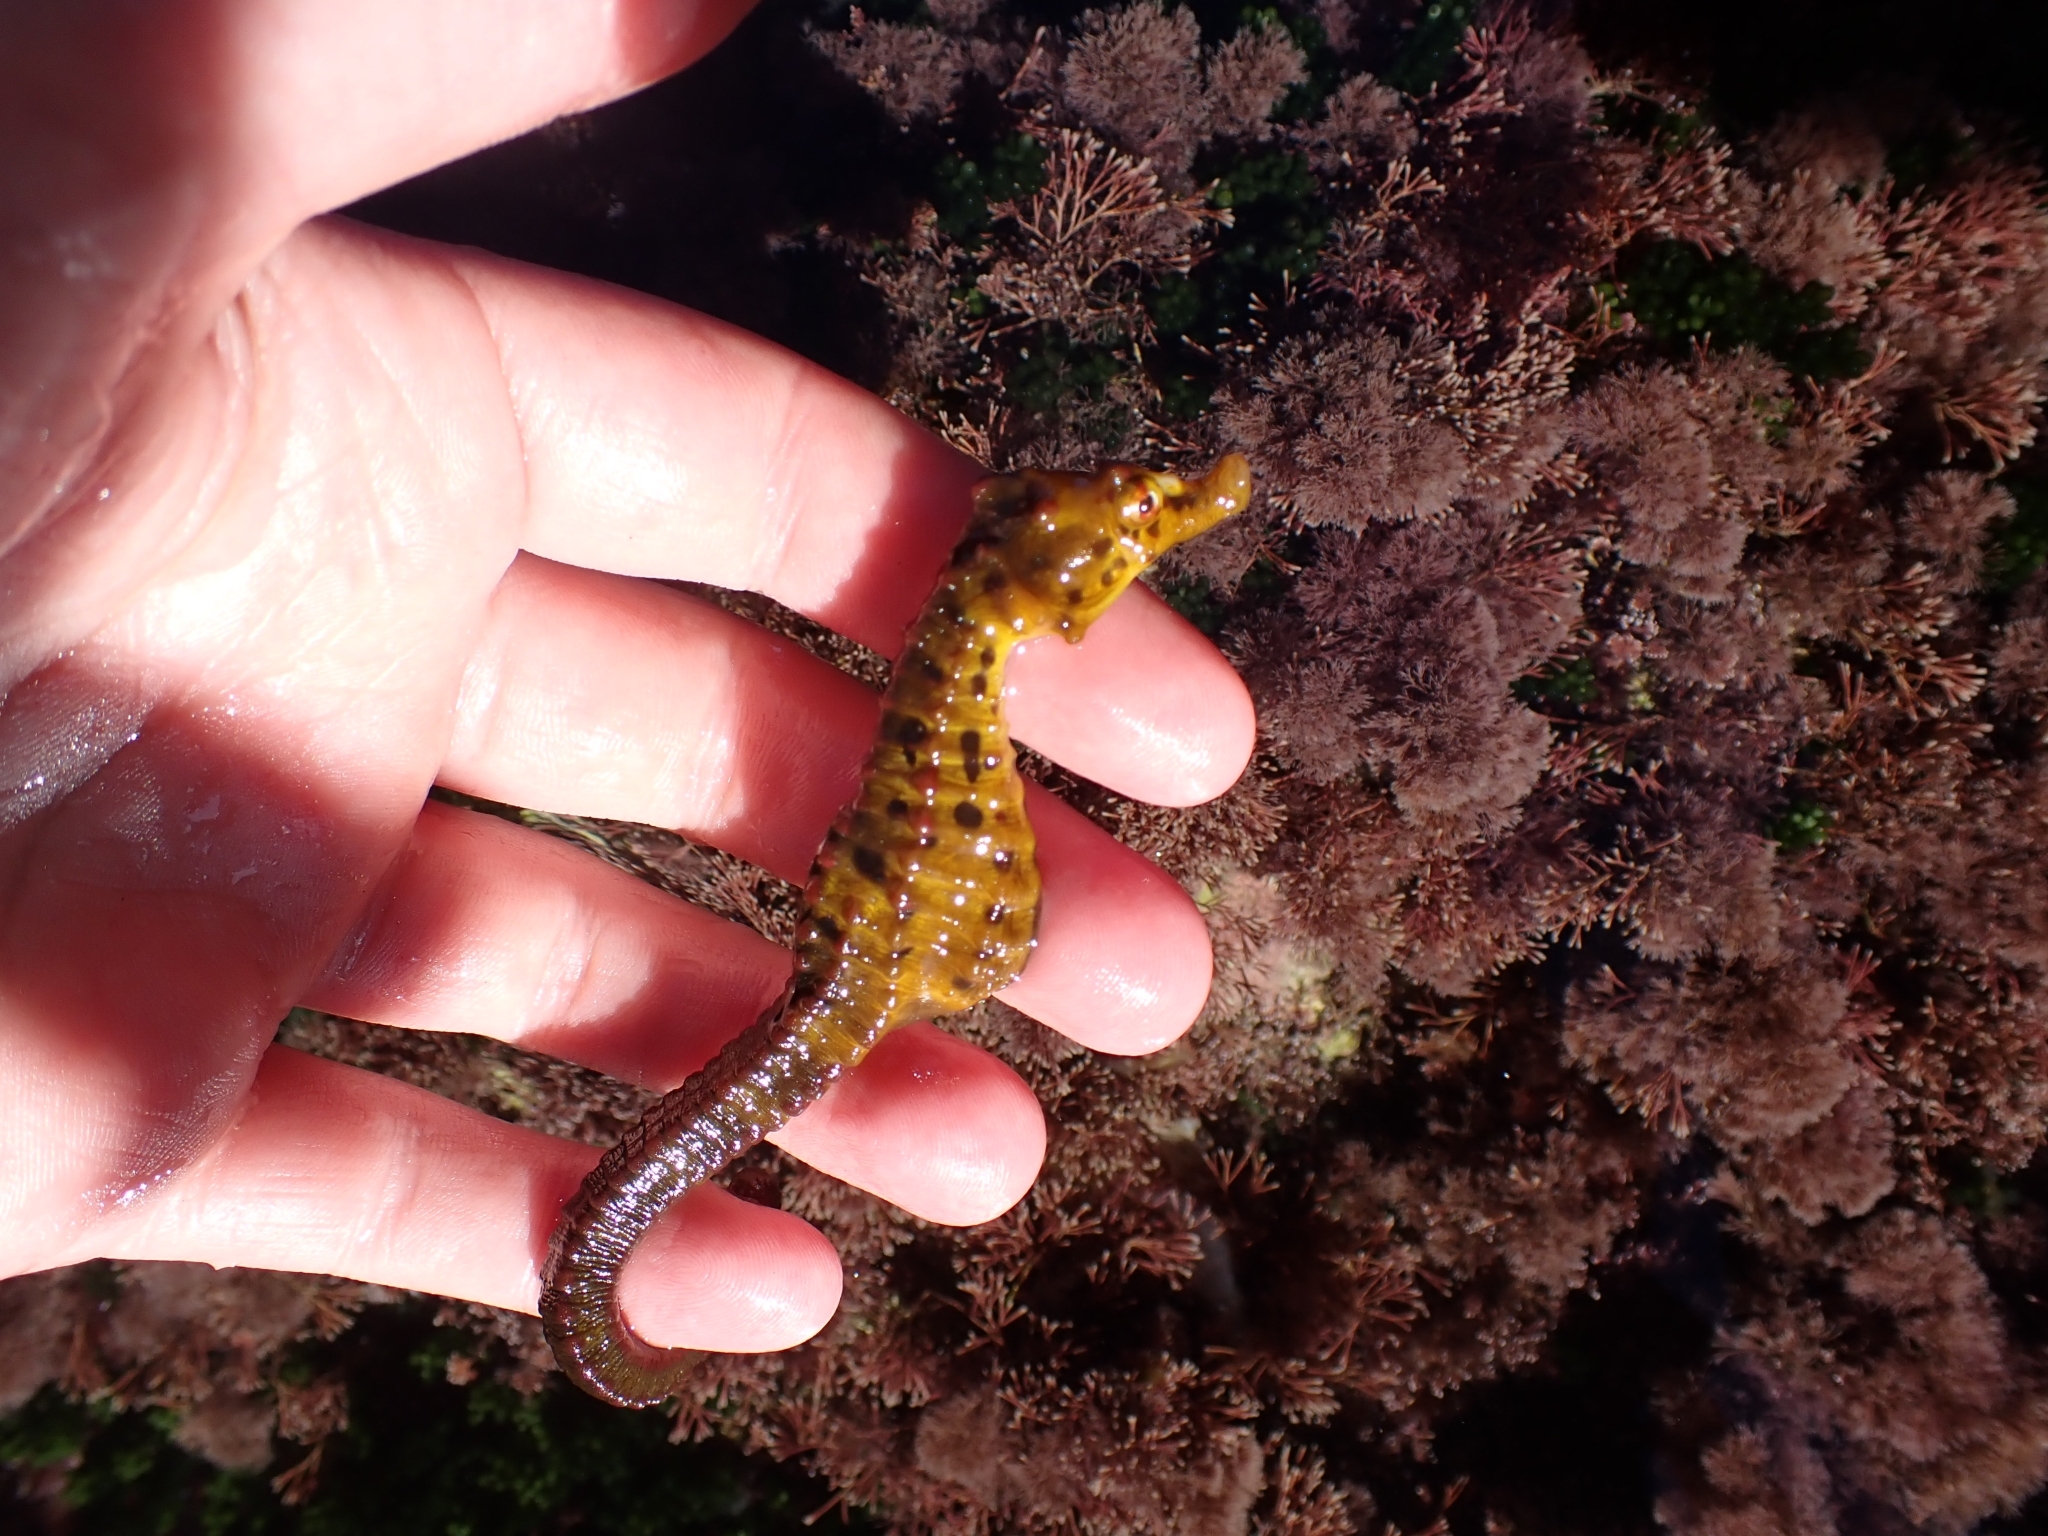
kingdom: Animalia
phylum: Chordata
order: Syngnathiformes
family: Syngnathidae
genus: Hippocampus
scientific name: Hippocampus abdominalis
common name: Big-belly seahorse
